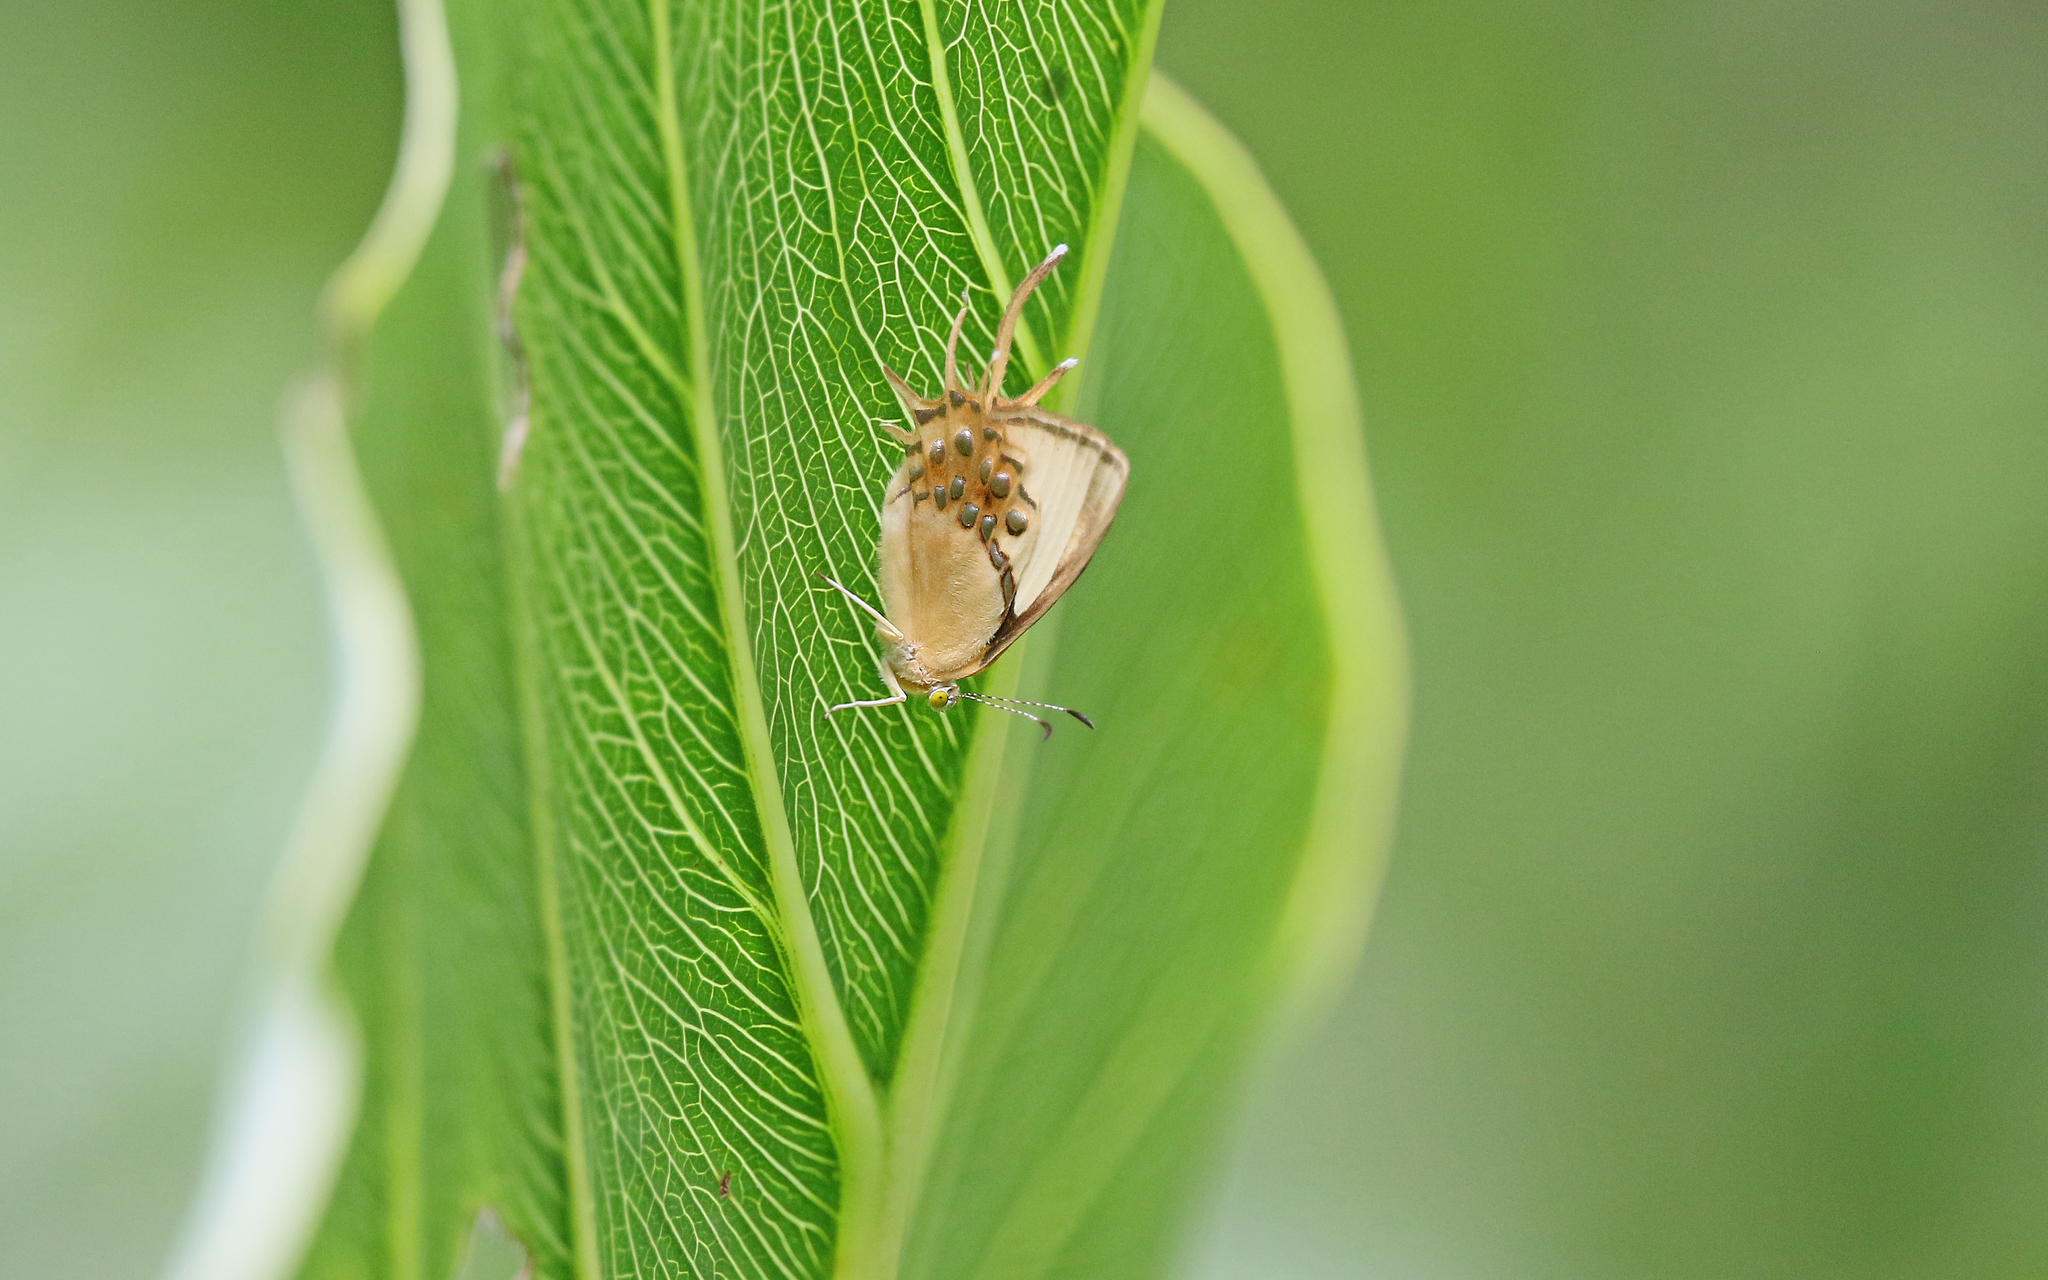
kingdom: Animalia
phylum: Arthropoda
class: Insecta
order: Lepidoptera
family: Riodinidae
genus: Helicopis
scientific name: Helicopis cupido
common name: Spangled cupid
